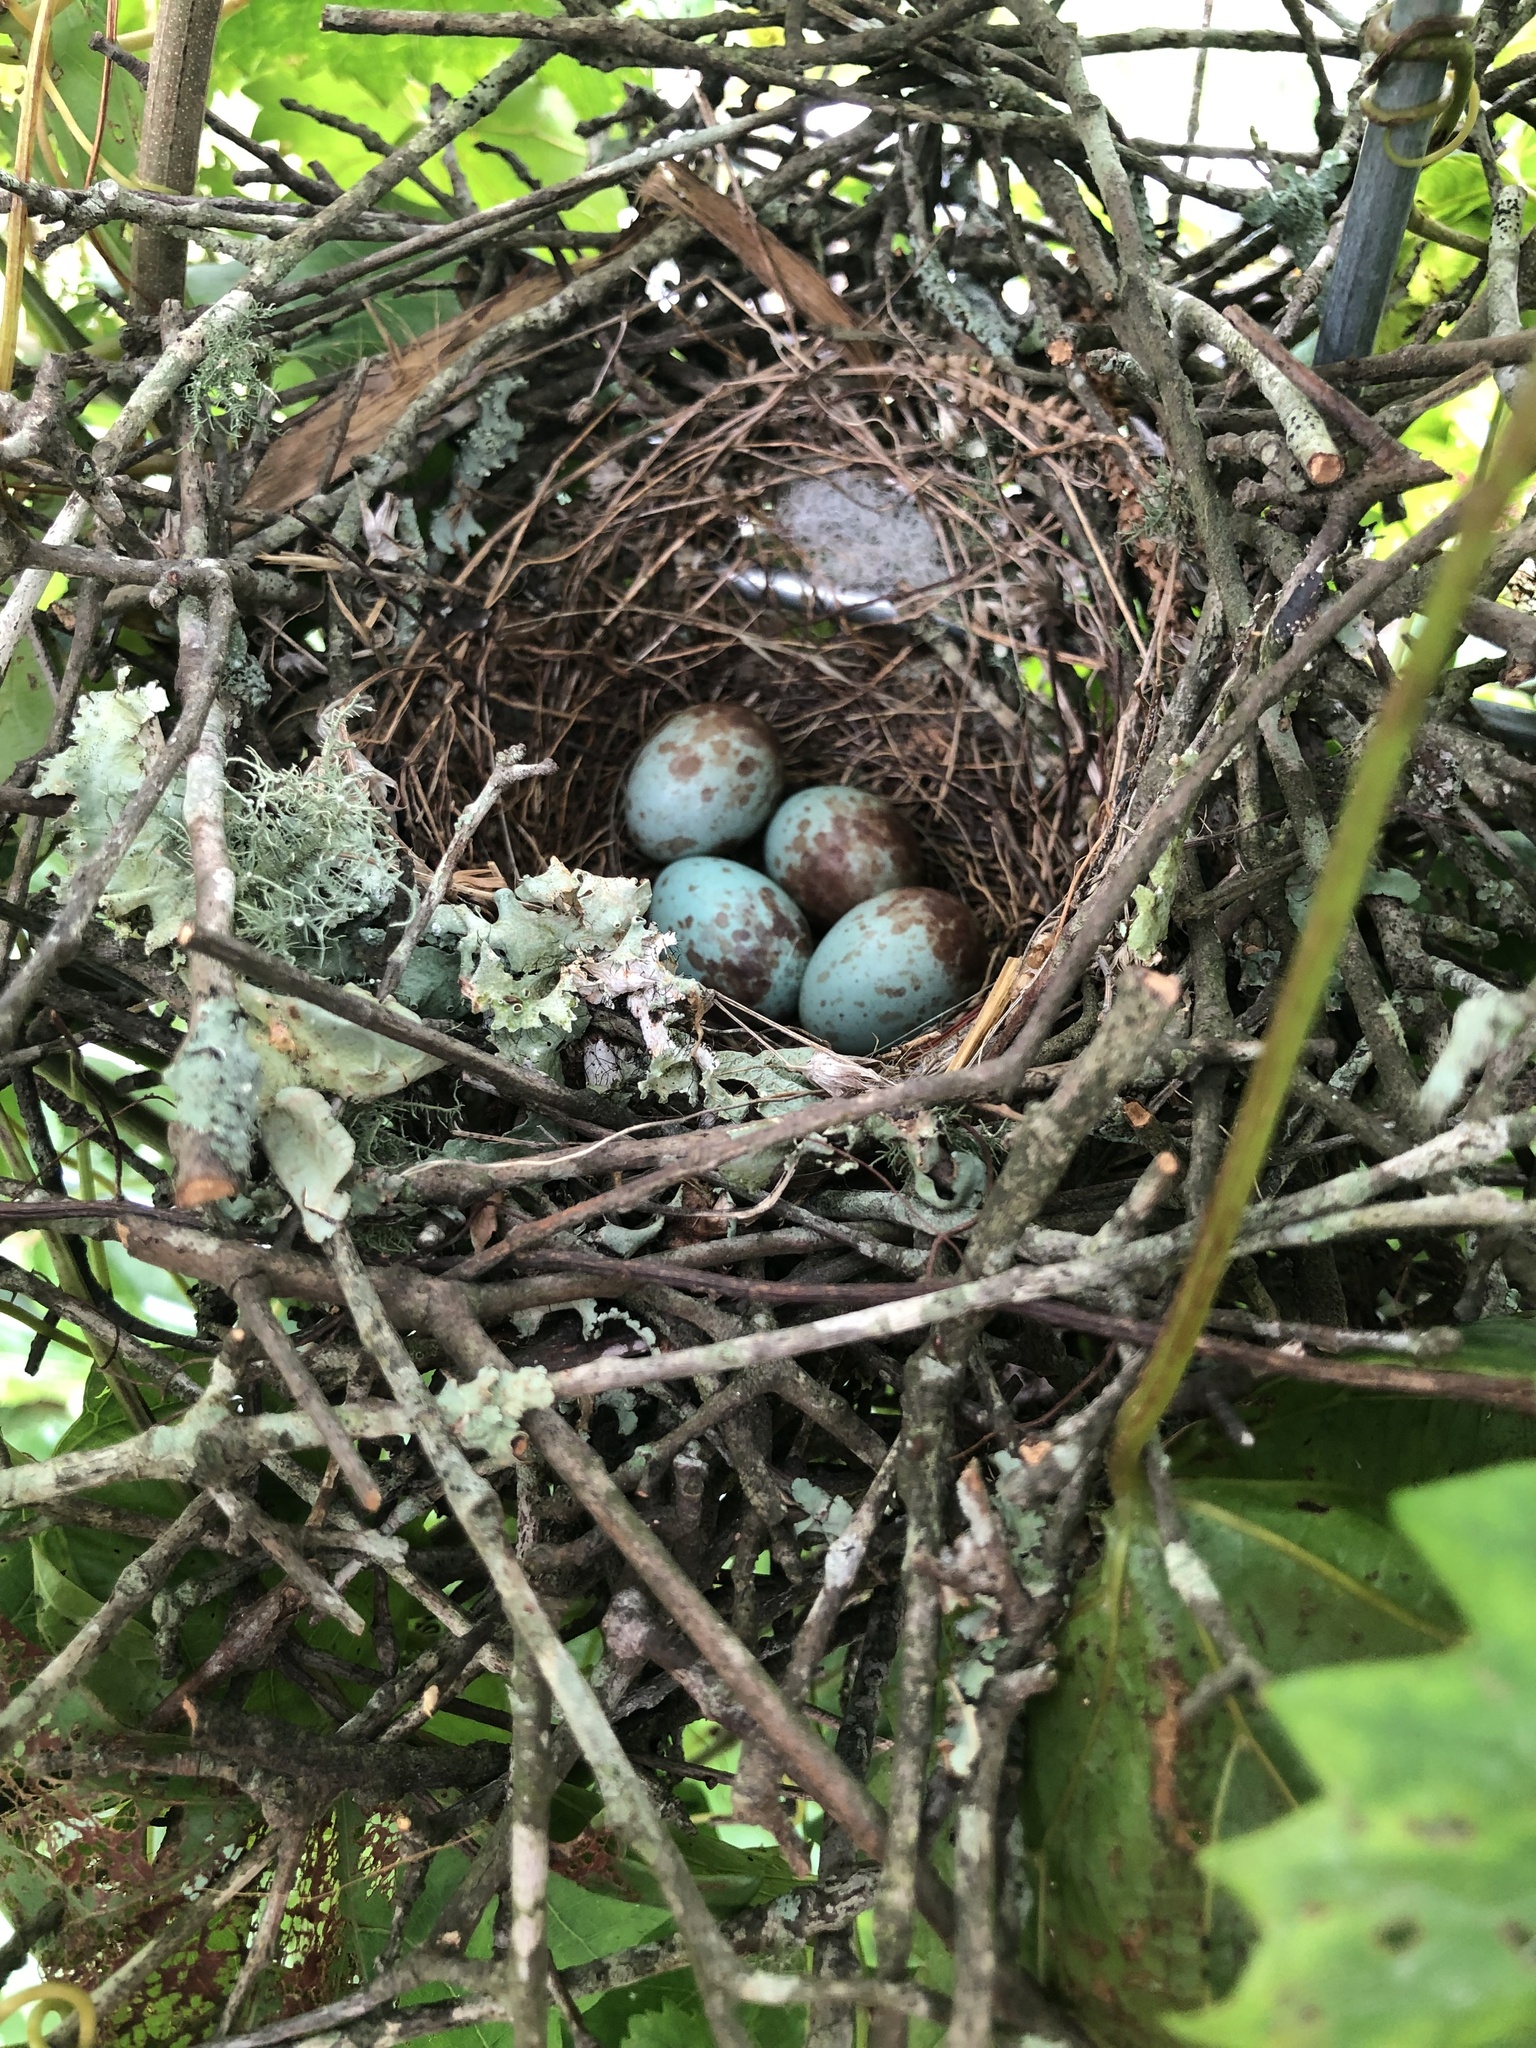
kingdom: Animalia
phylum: Chordata
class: Aves
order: Passeriformes
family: Mimidae
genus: Mimus
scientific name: Mimus polyglottos
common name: Northern mockingbird
